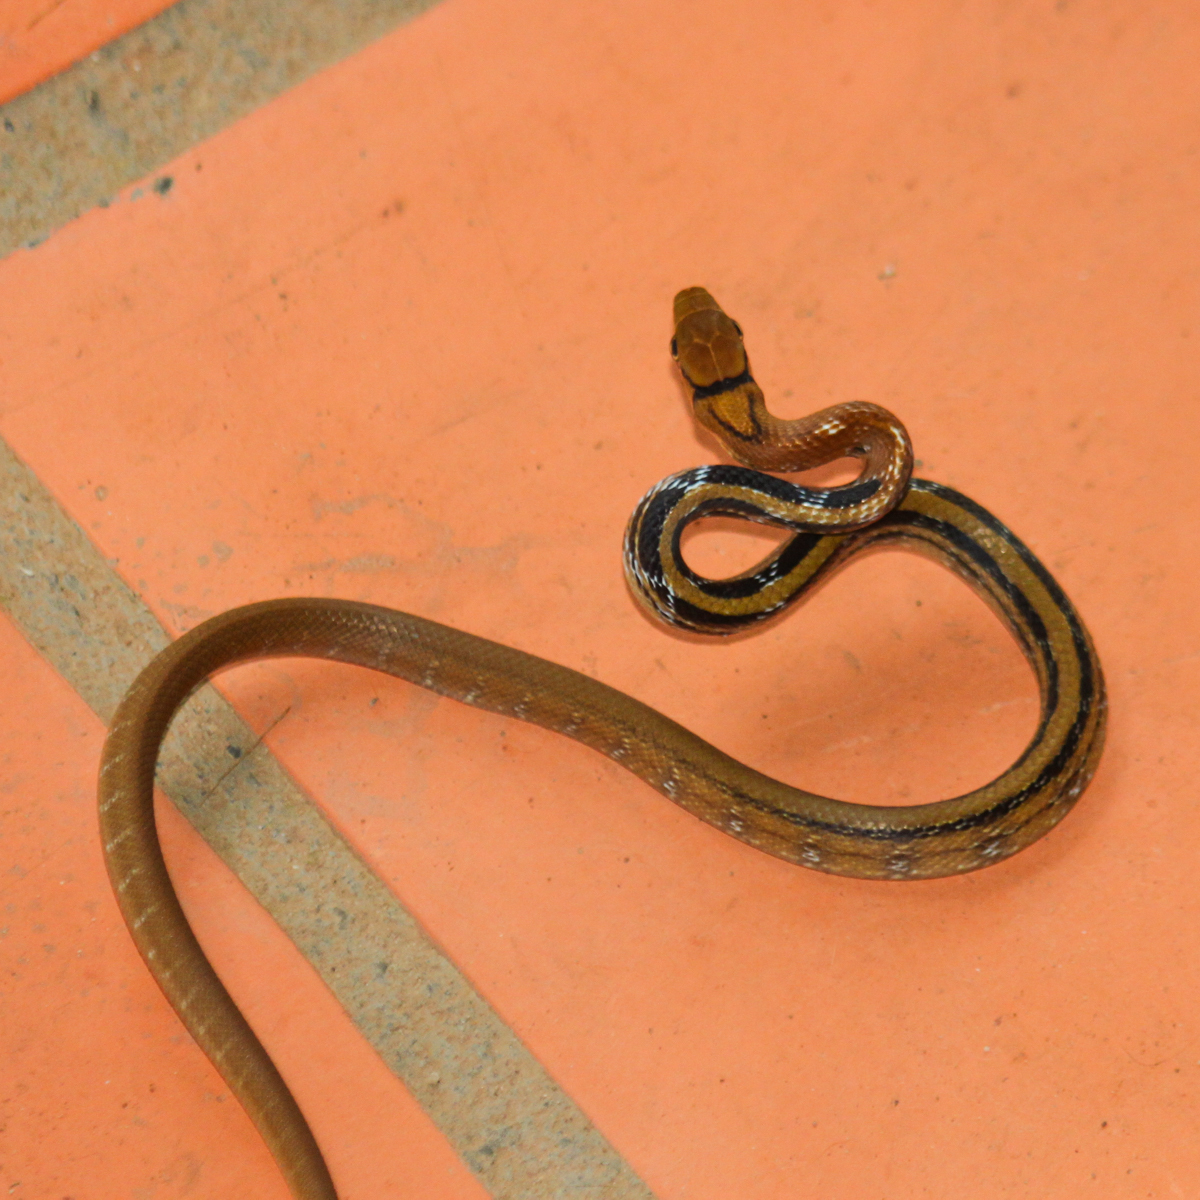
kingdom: Animalia
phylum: Chordata
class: Squamata
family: Colubridae
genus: Coelognathus
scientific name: Coelognathus radiatus
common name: Copperhead rat snake
